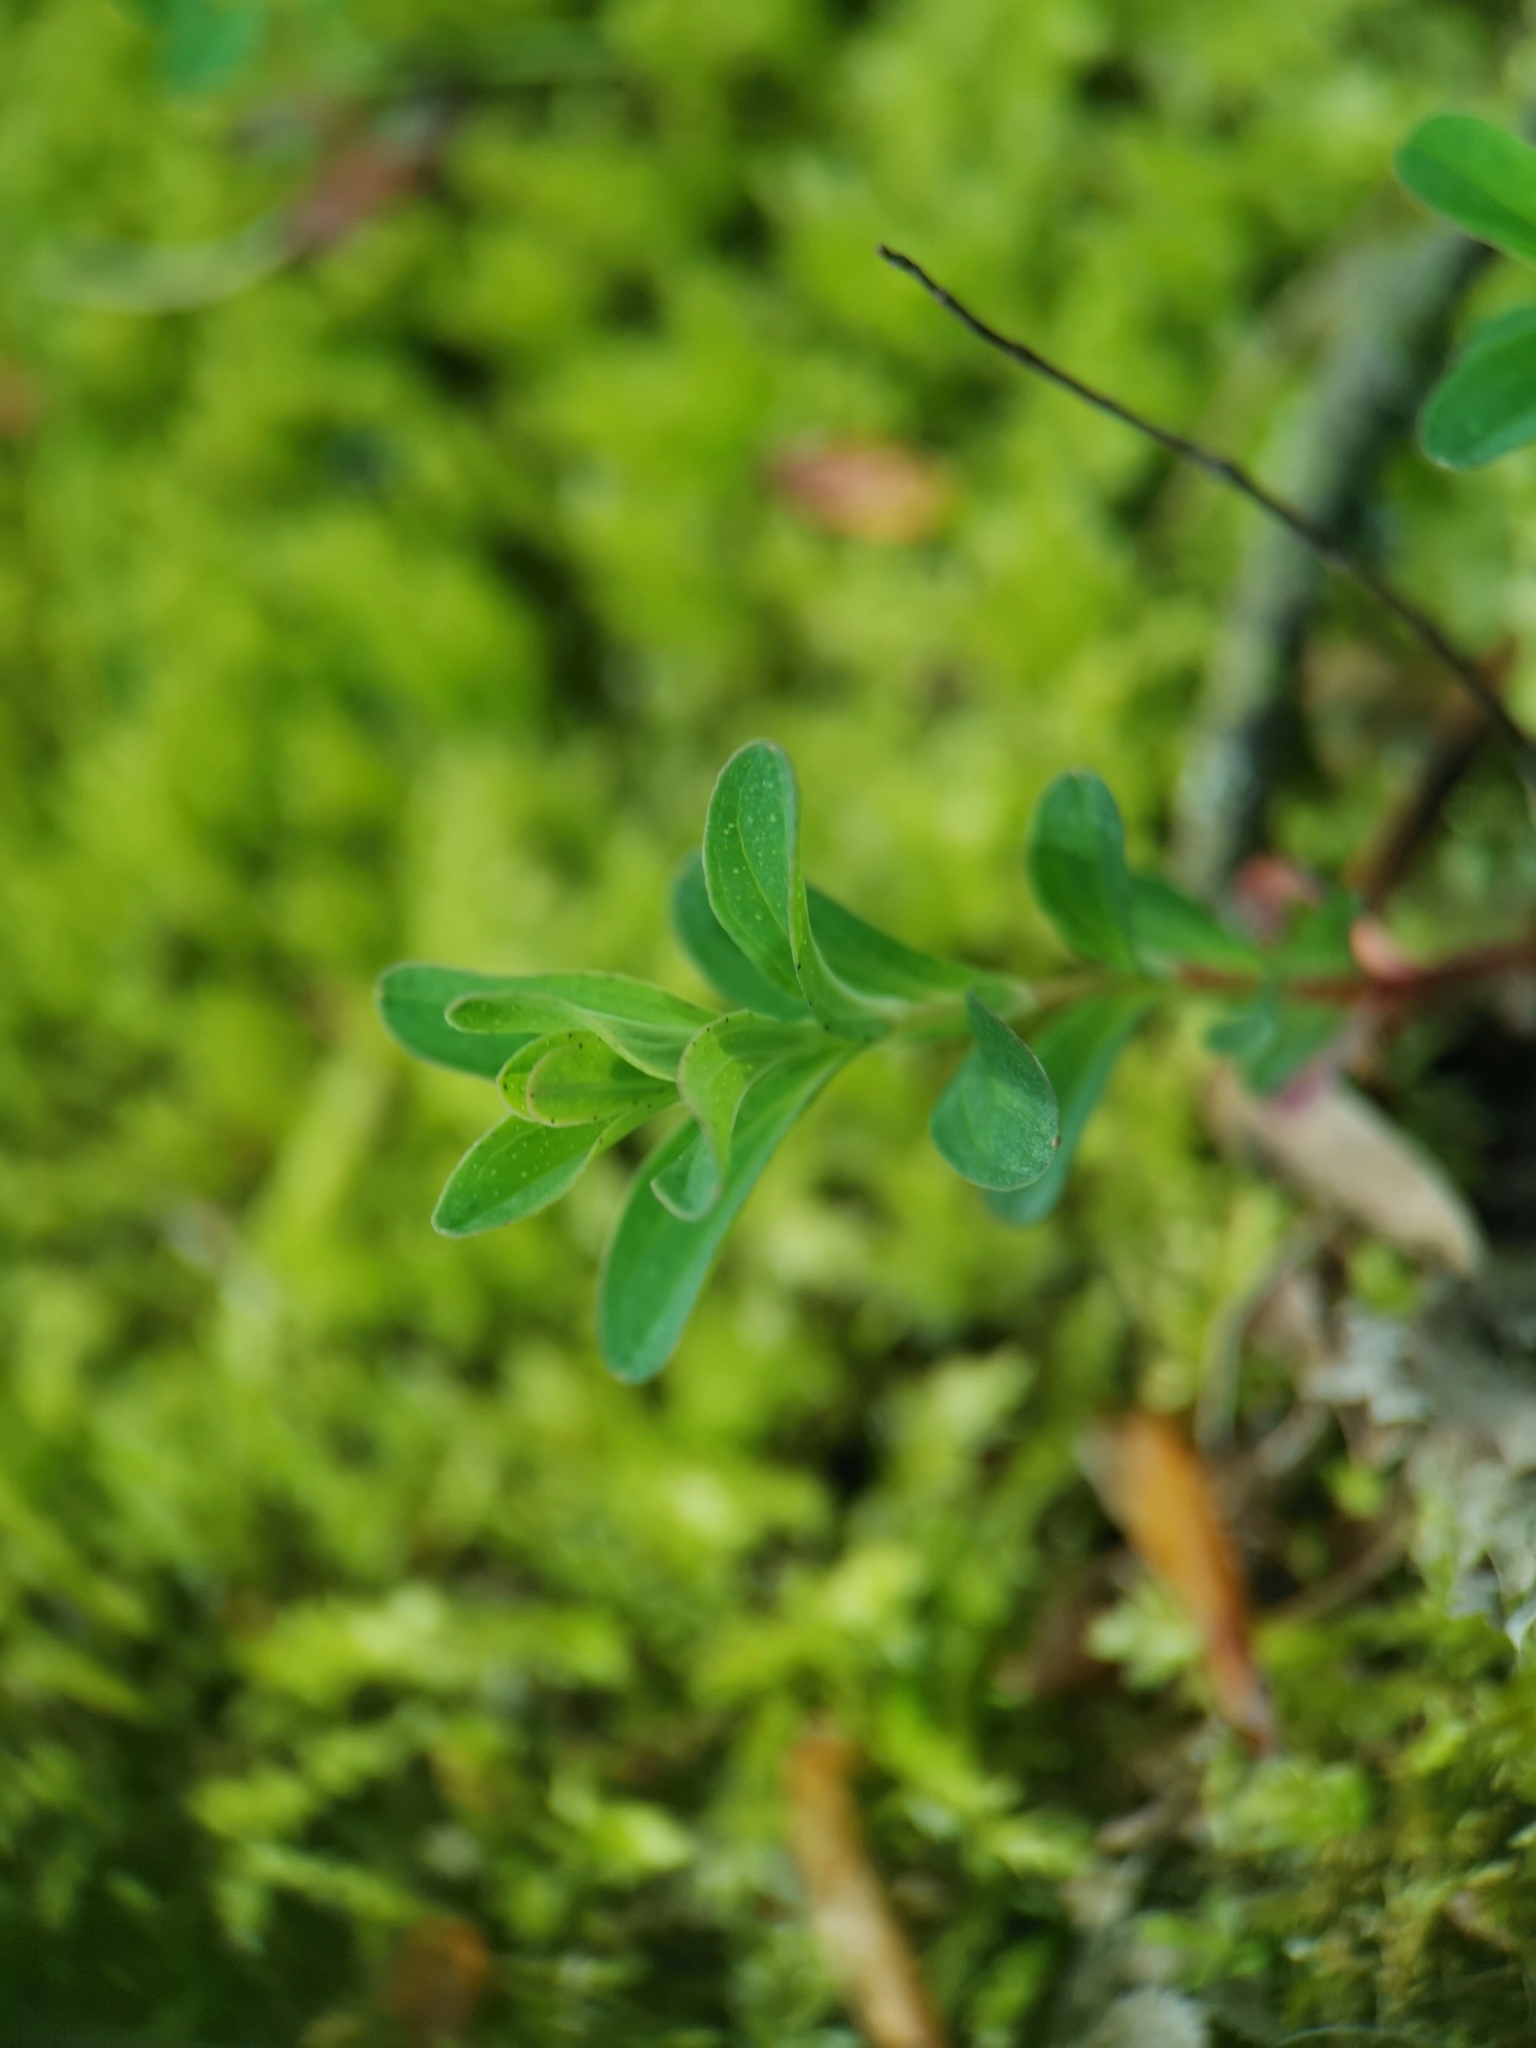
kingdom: Plantae
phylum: Tracheophyta
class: Magnoliopsida
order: Malpighiales
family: Hypericaceae
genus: Hypericum
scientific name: Hypericum perforatum
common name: Common st. johnswort
